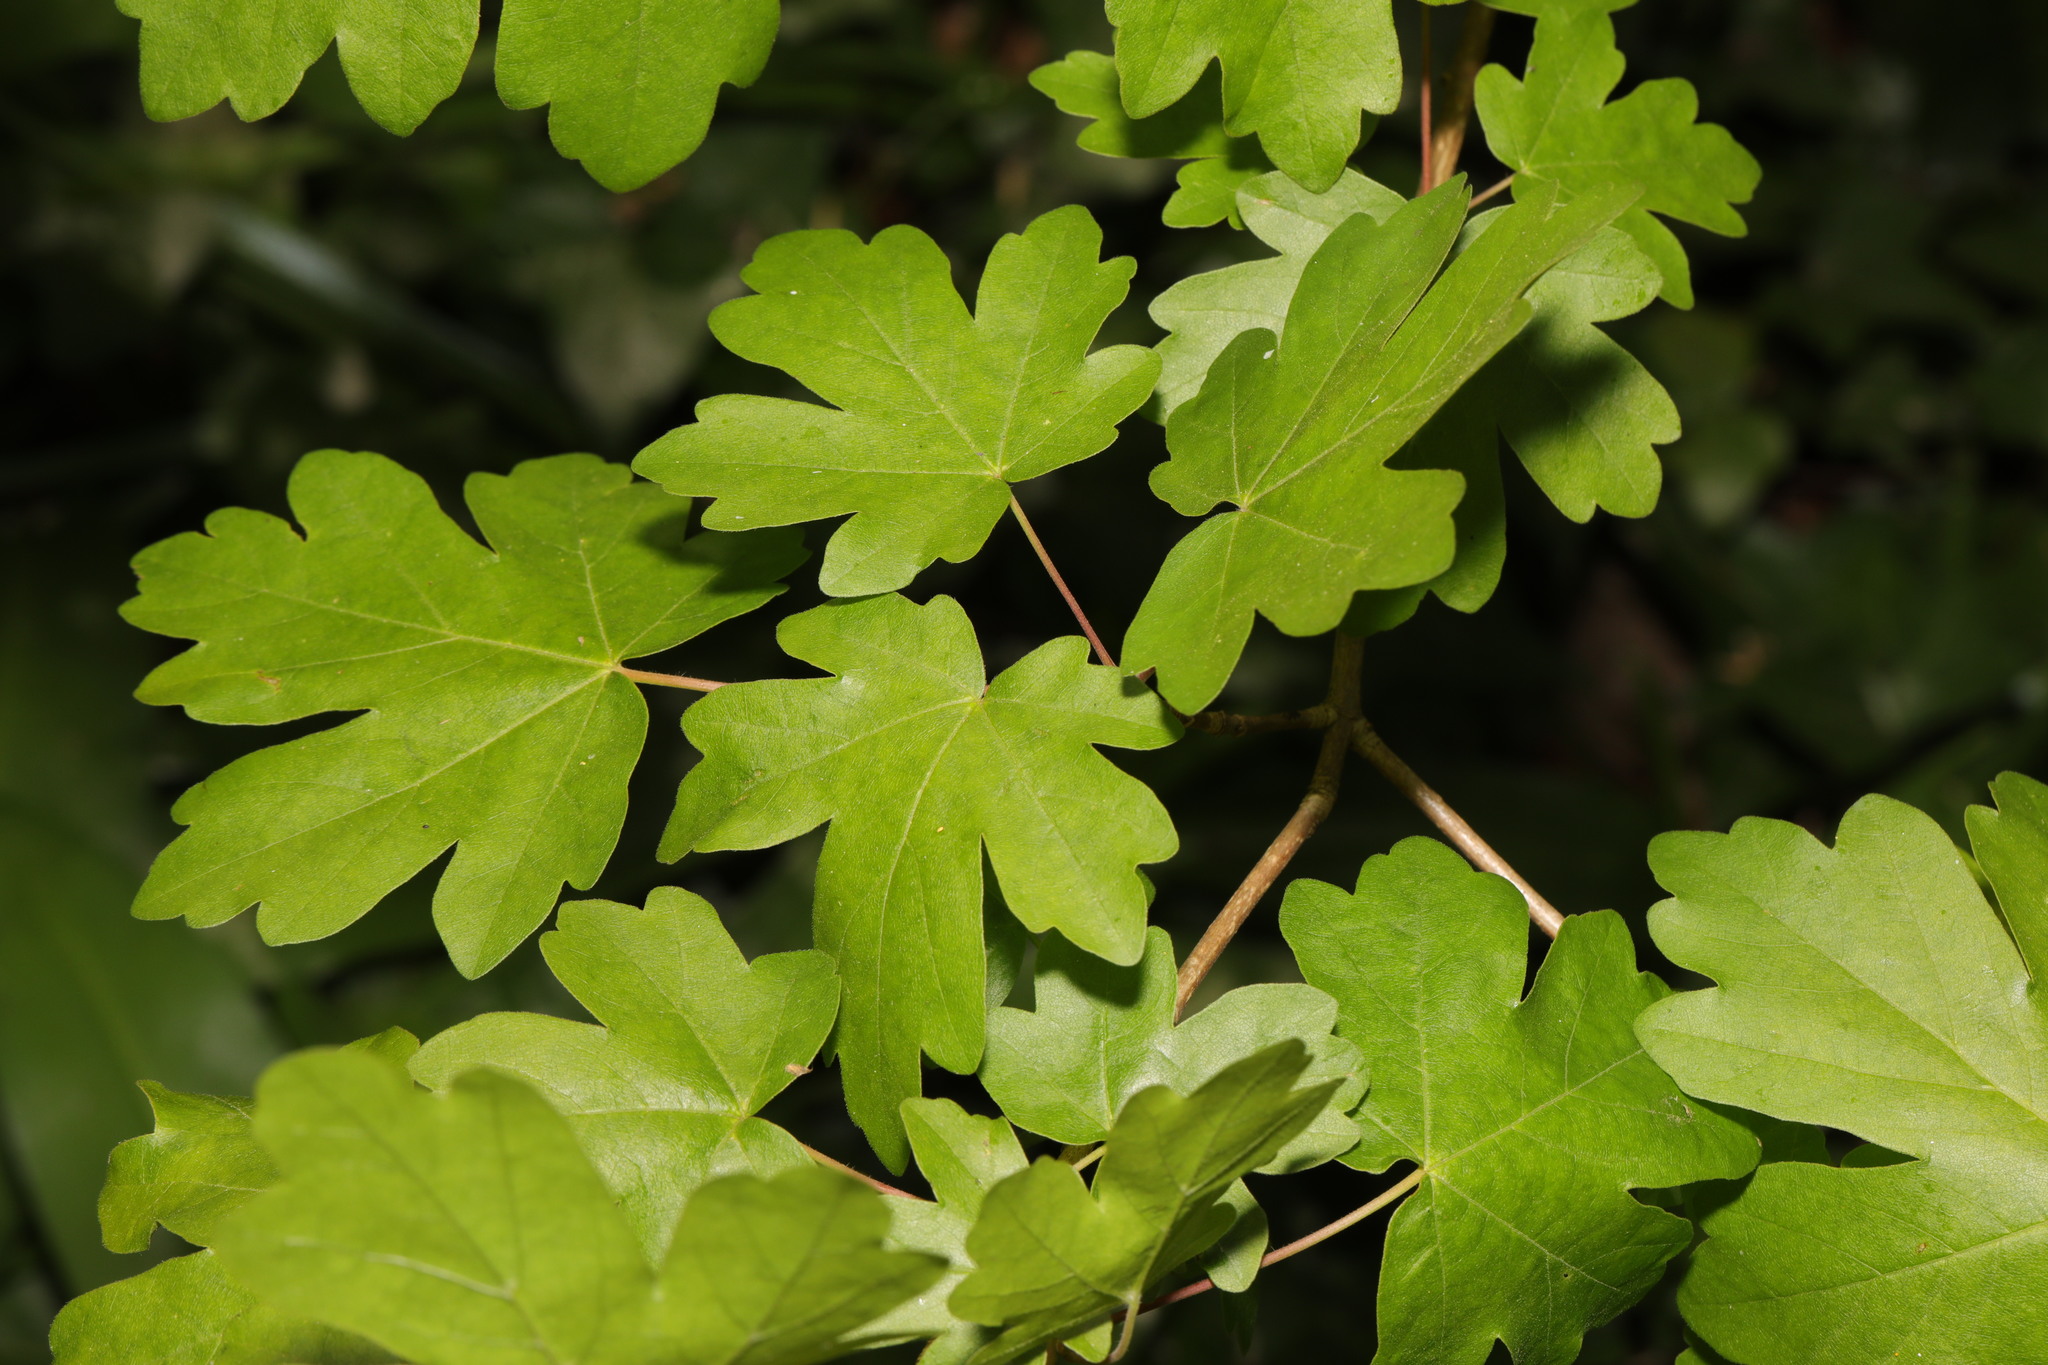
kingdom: Plantae
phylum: Tracheophyta
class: Magnoliopsida
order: Sapindales
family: Sapindaceae
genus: Acer
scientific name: Acer campestre
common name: Field maple
